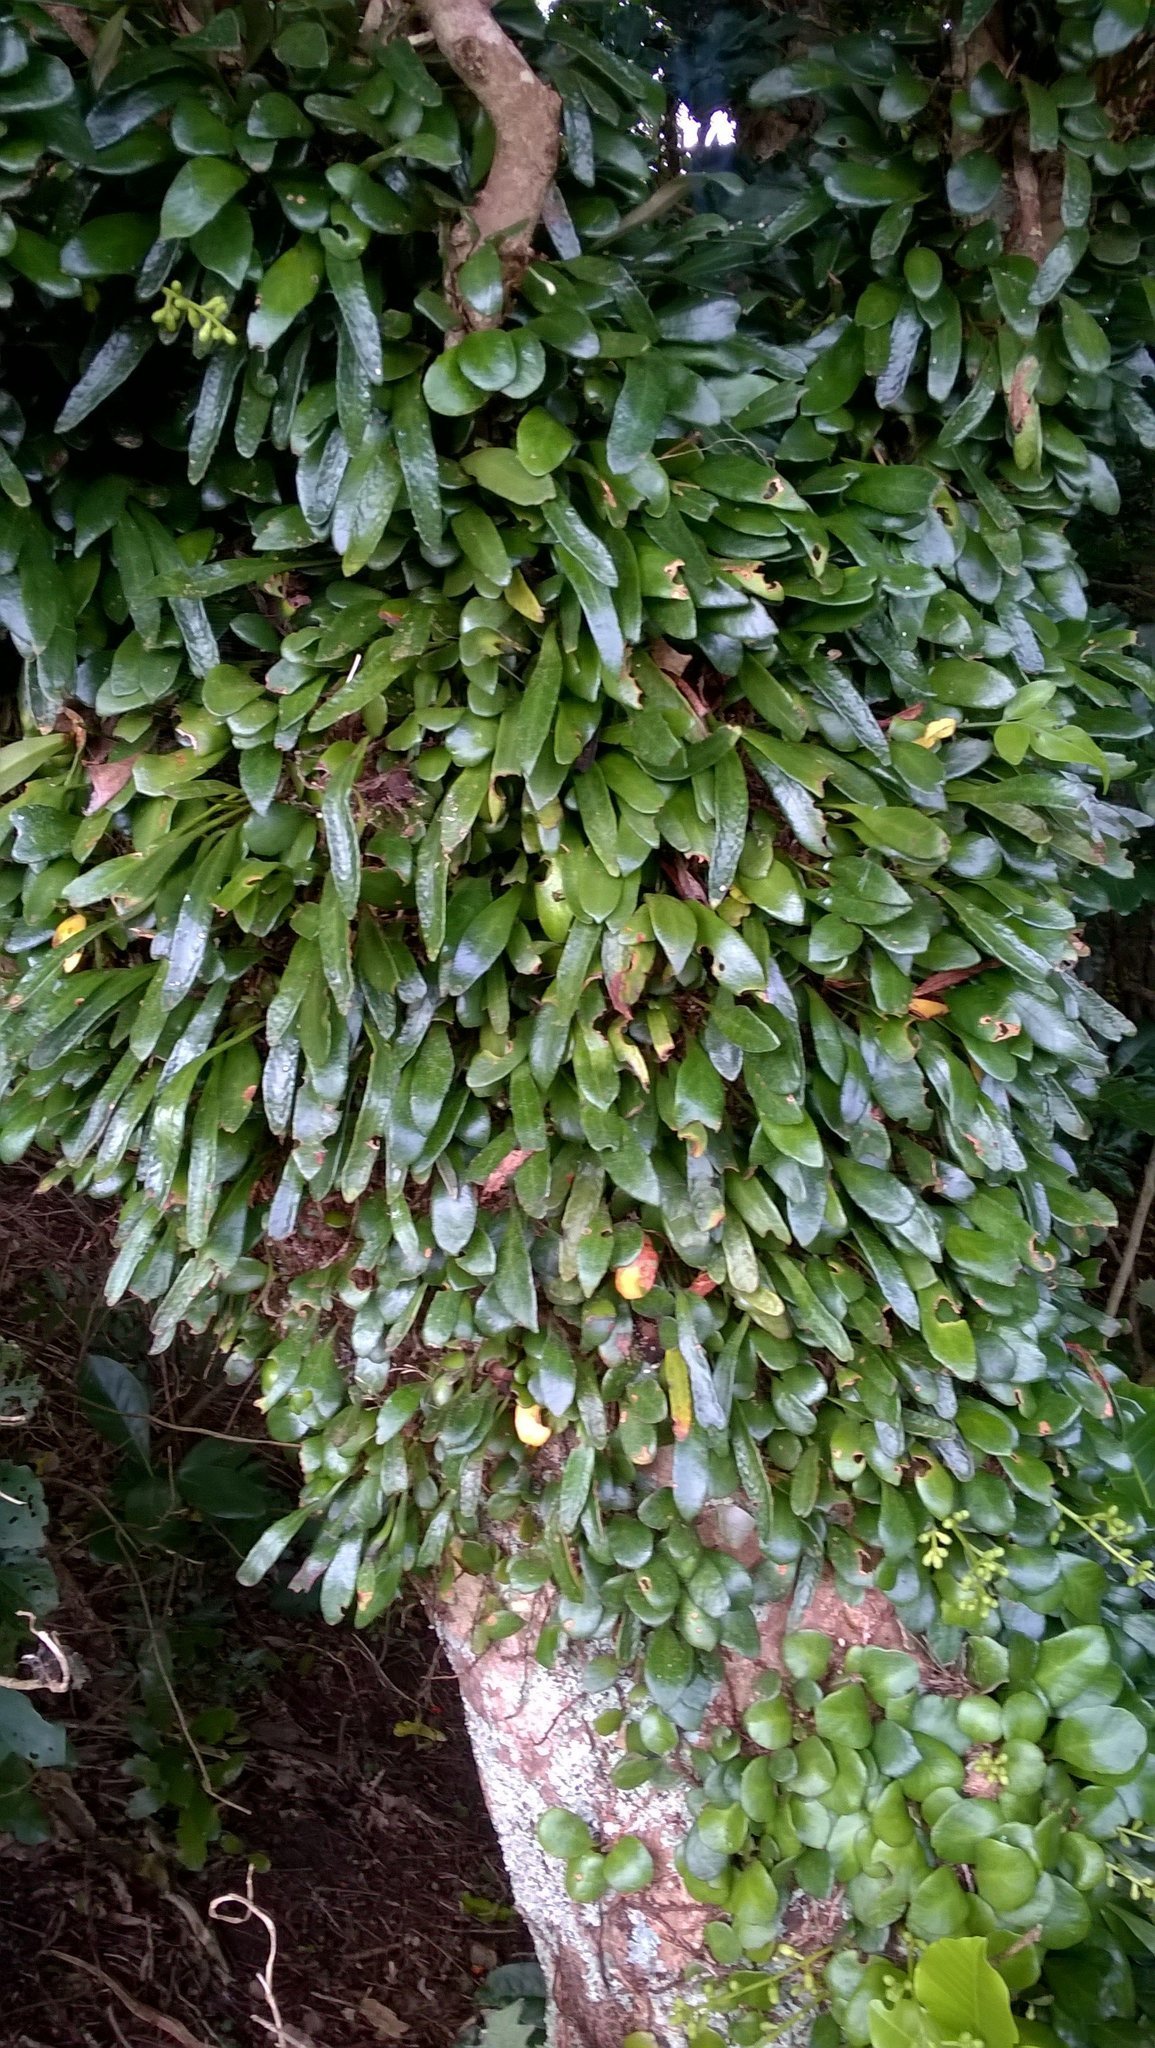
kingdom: Plantae
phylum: Tracheophyta
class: Polypodiopsida
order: Polypodiales
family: Polypodiaceae
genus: Pyrrosia
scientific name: Pyrrosia eleagnifolia
